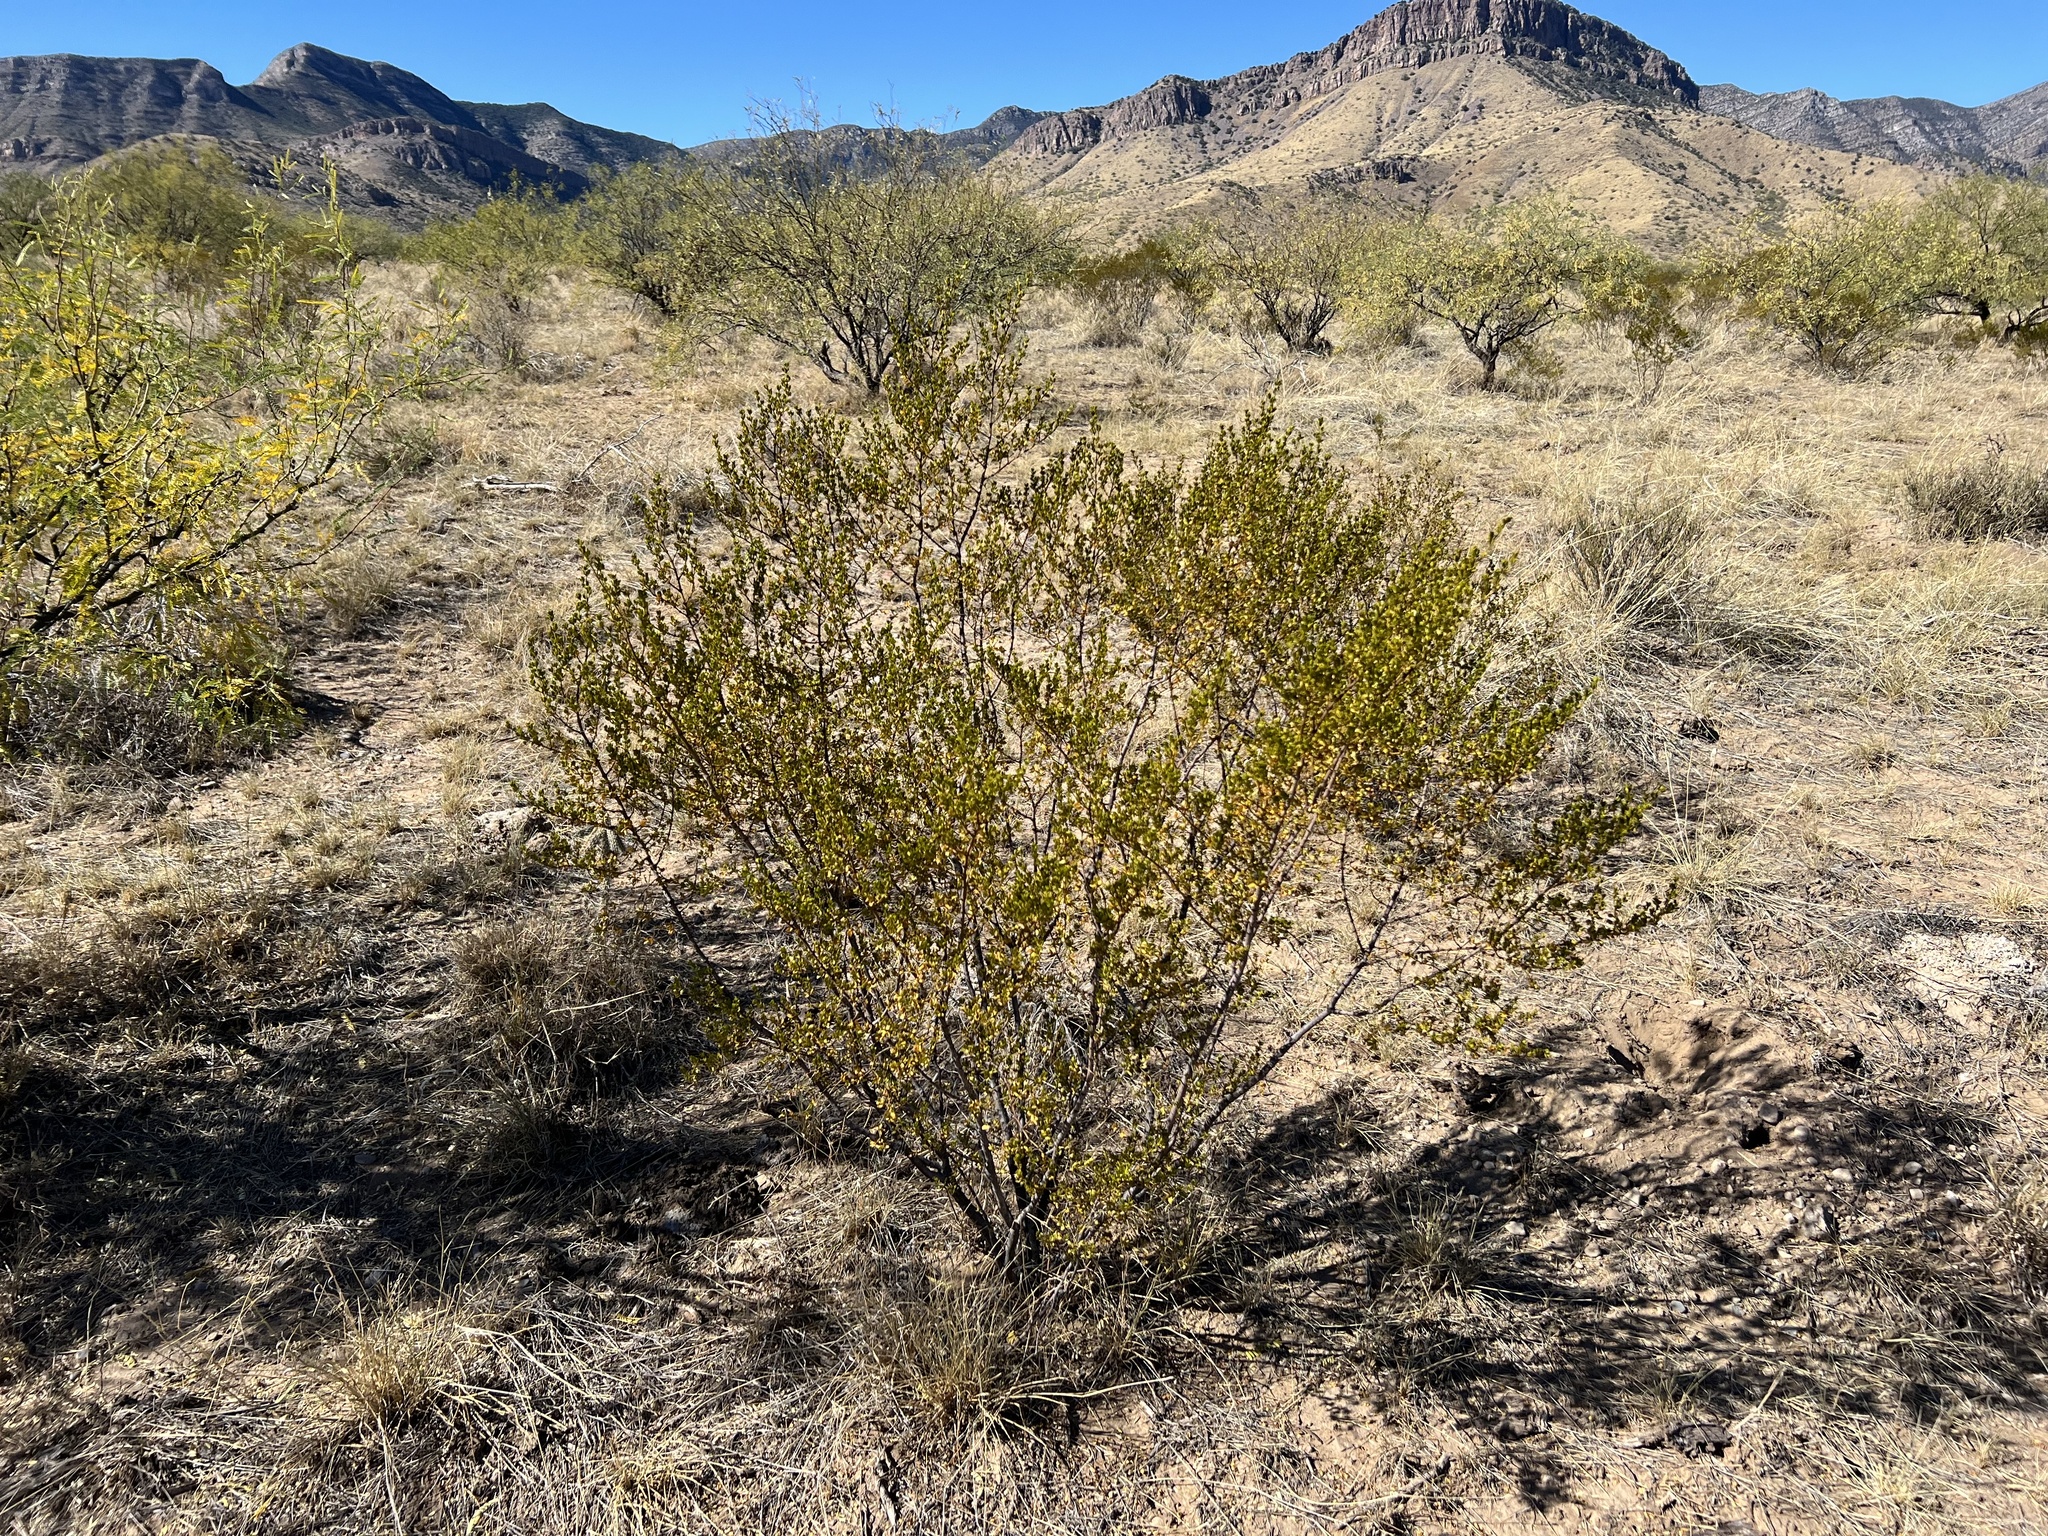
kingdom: Plantae
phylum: Tracheophyta
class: Magnoliopsida
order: Zygophyllales
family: Zygophyllaceae
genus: Larrea
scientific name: Larrea tridentata
